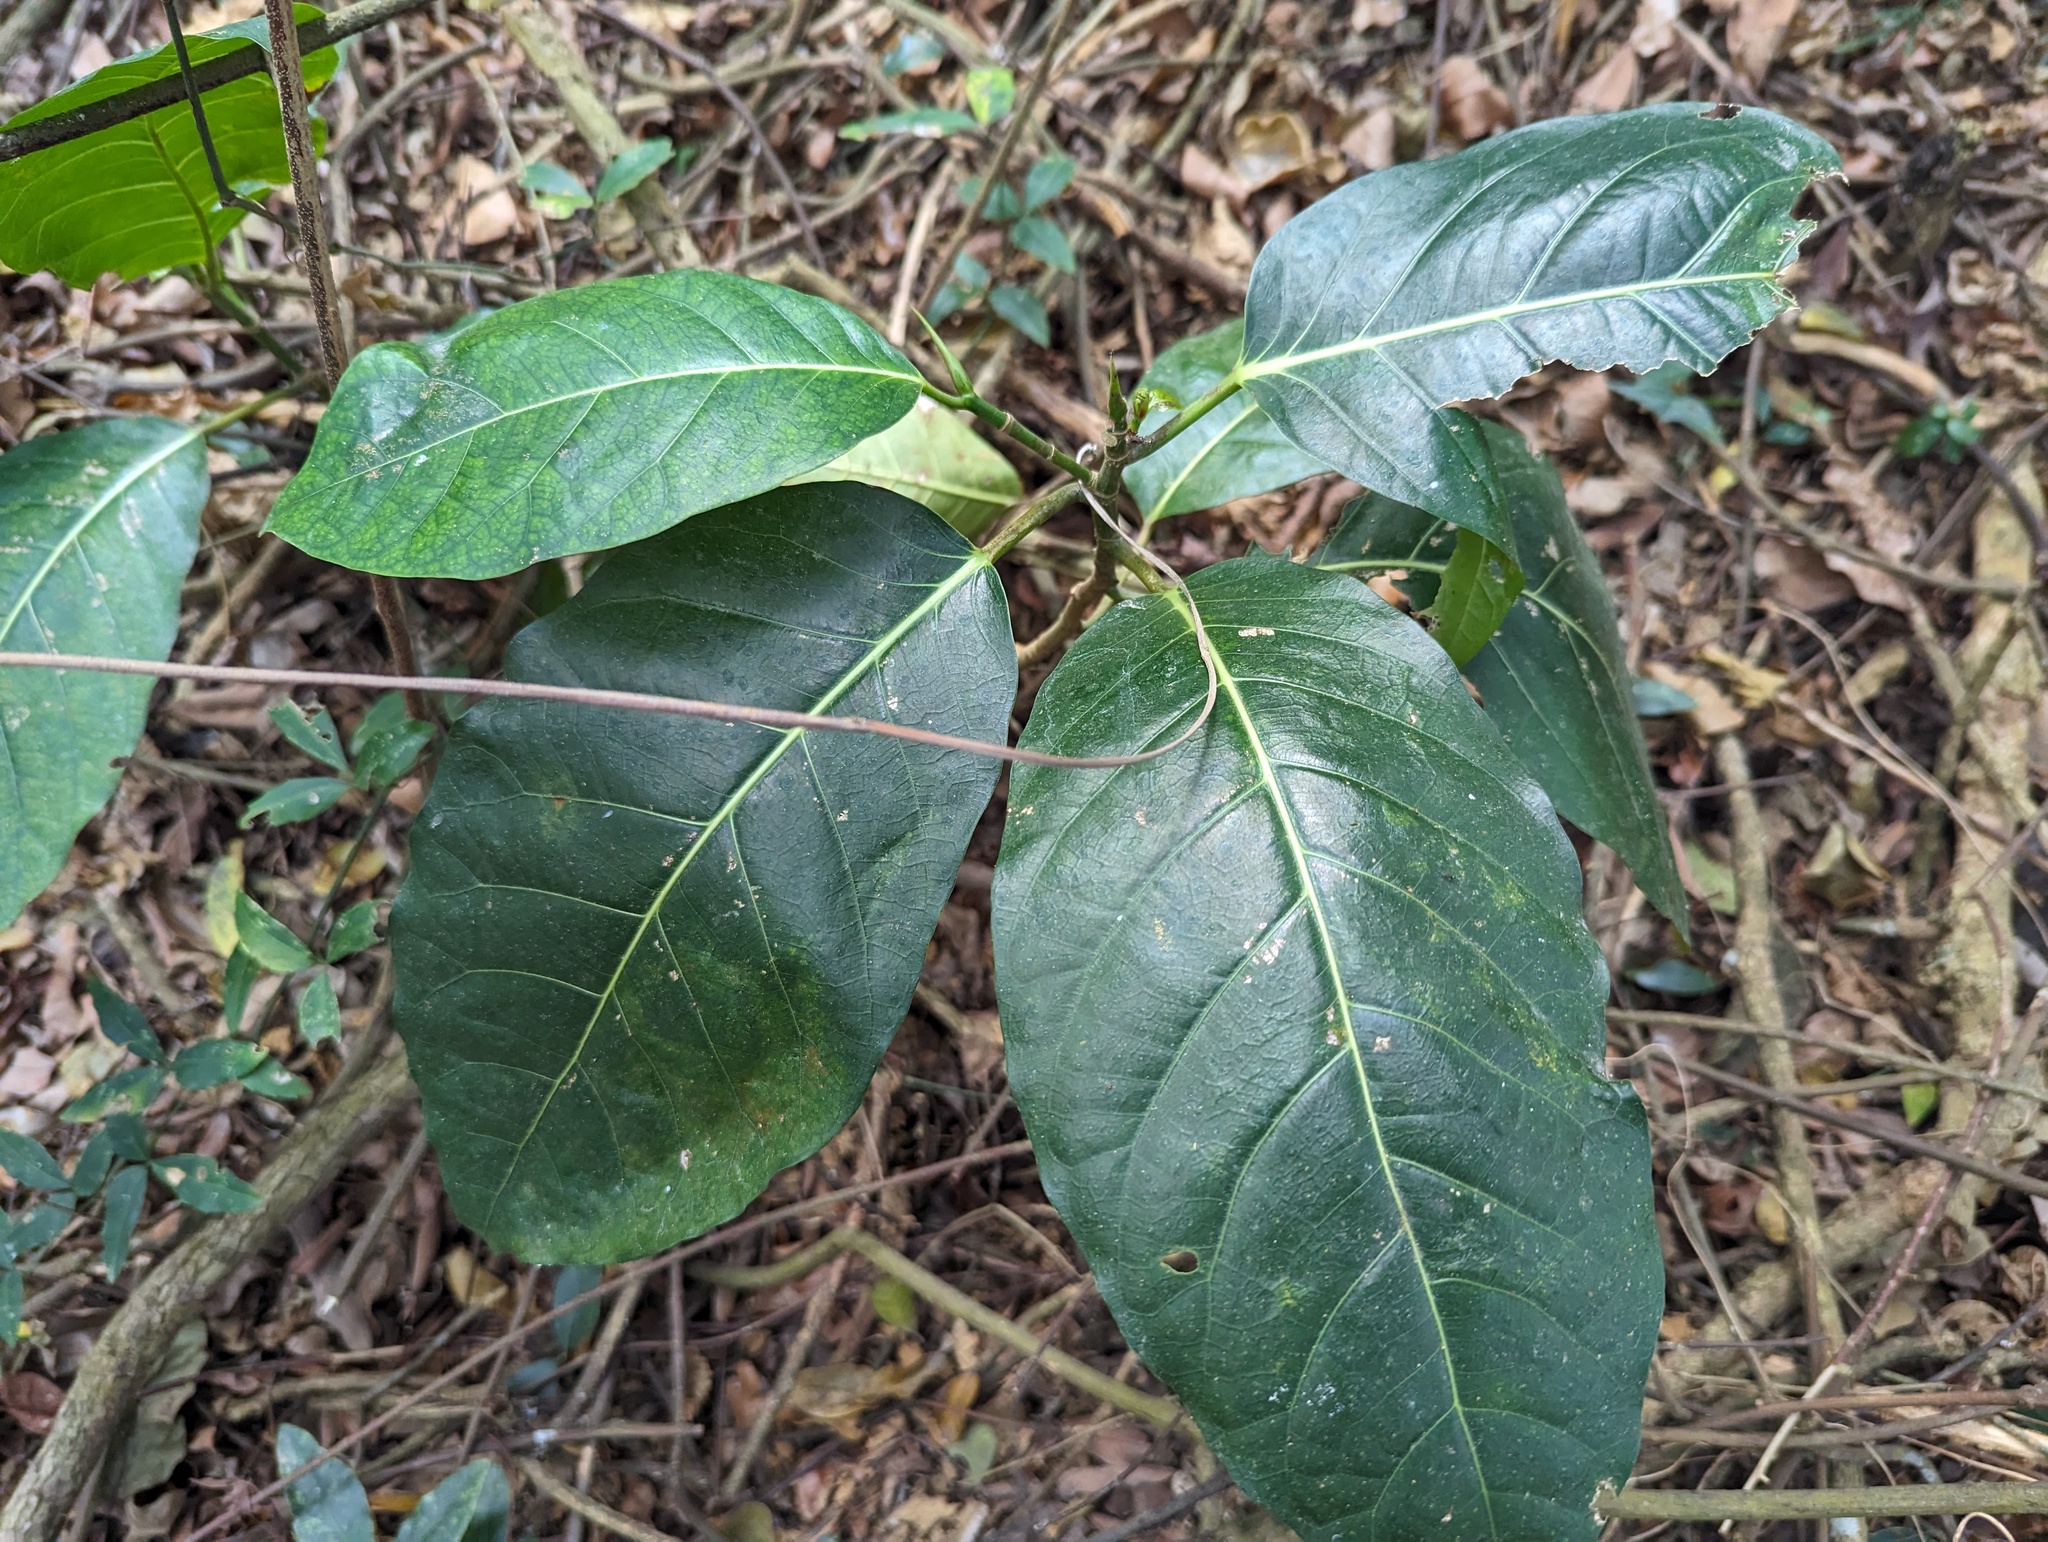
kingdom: Plantae
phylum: Tracheophyta
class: Magnoliopsida
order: Rosales
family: Moraceae
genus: Ficus
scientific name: Ficus septica
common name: Septic fig
